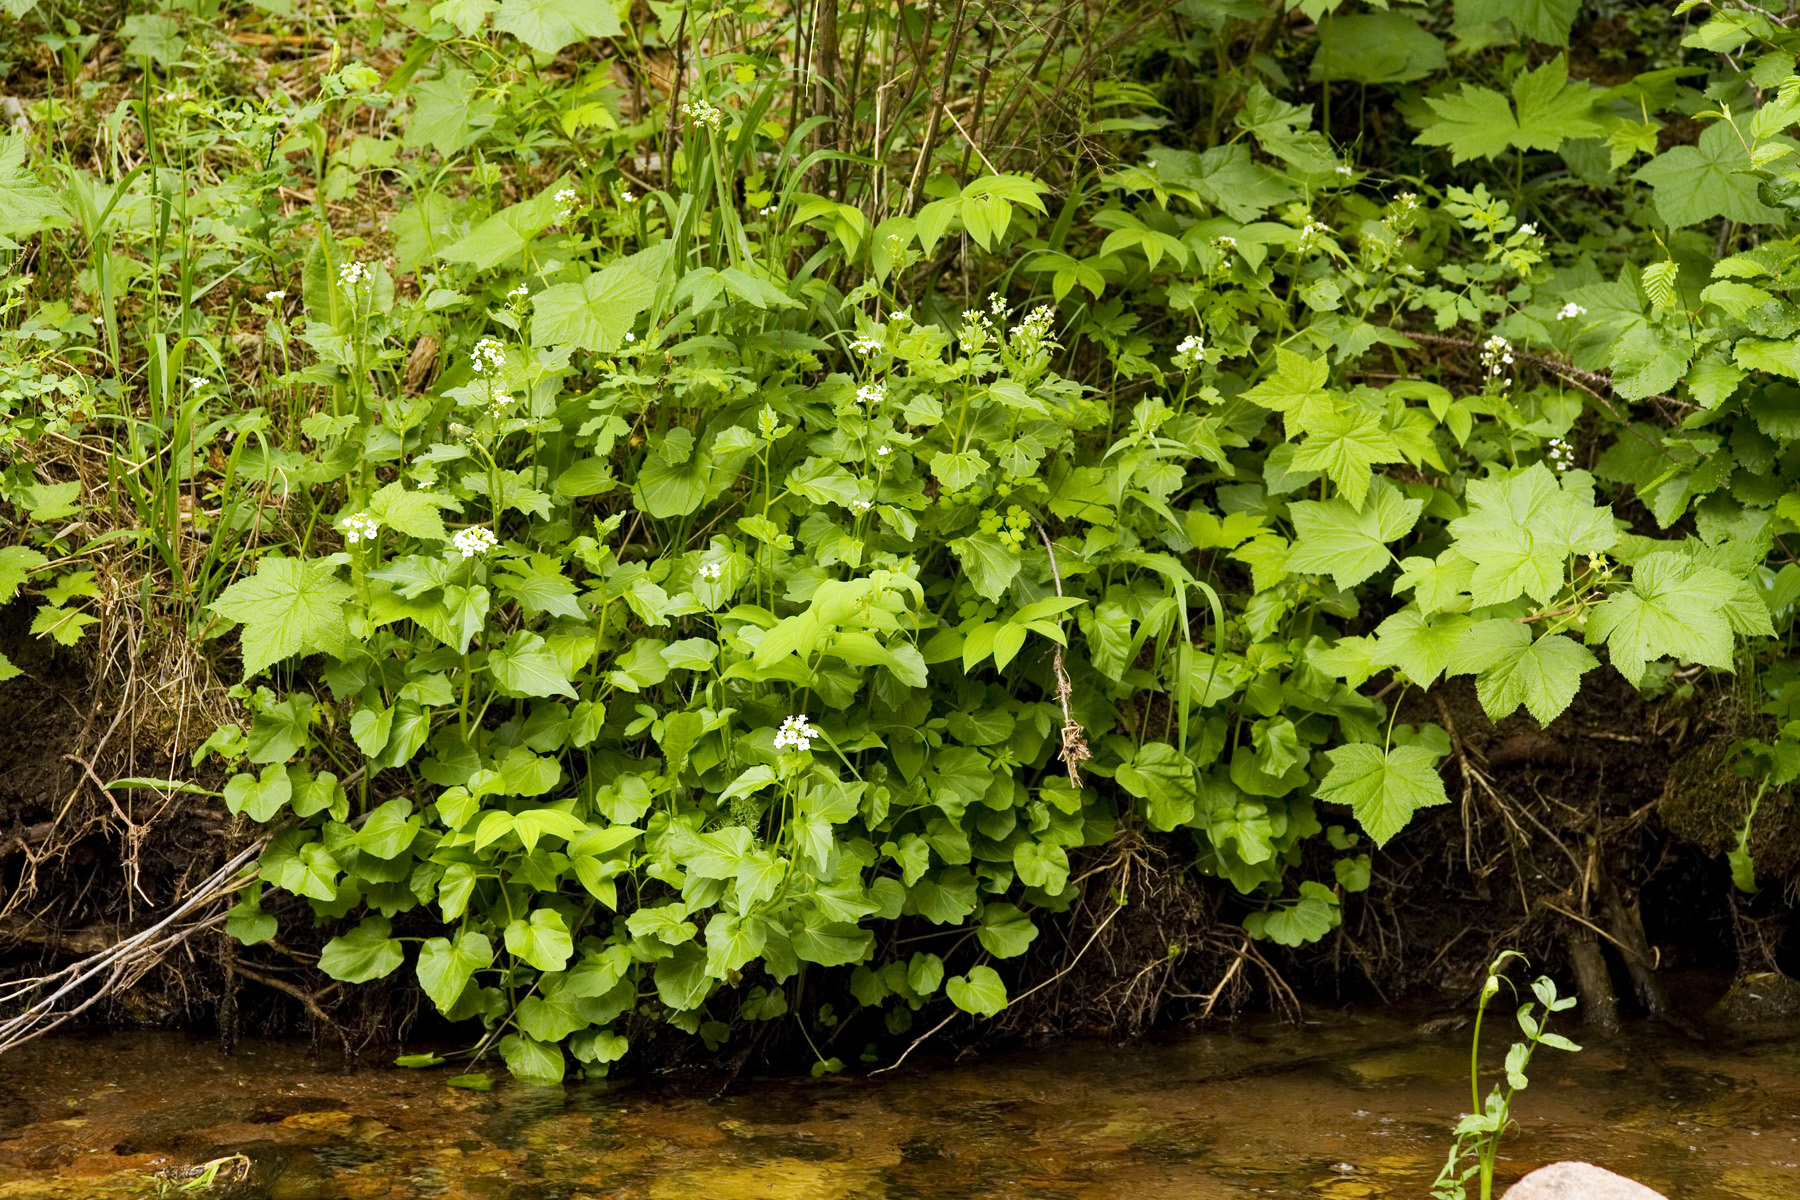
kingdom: Plantae
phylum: Tracheophyta
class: Magnoliopsida
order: Brassicales
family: Brassicaceae
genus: Cardamine
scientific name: Cardamine cordifolia
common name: Heart-leaf bittercress
